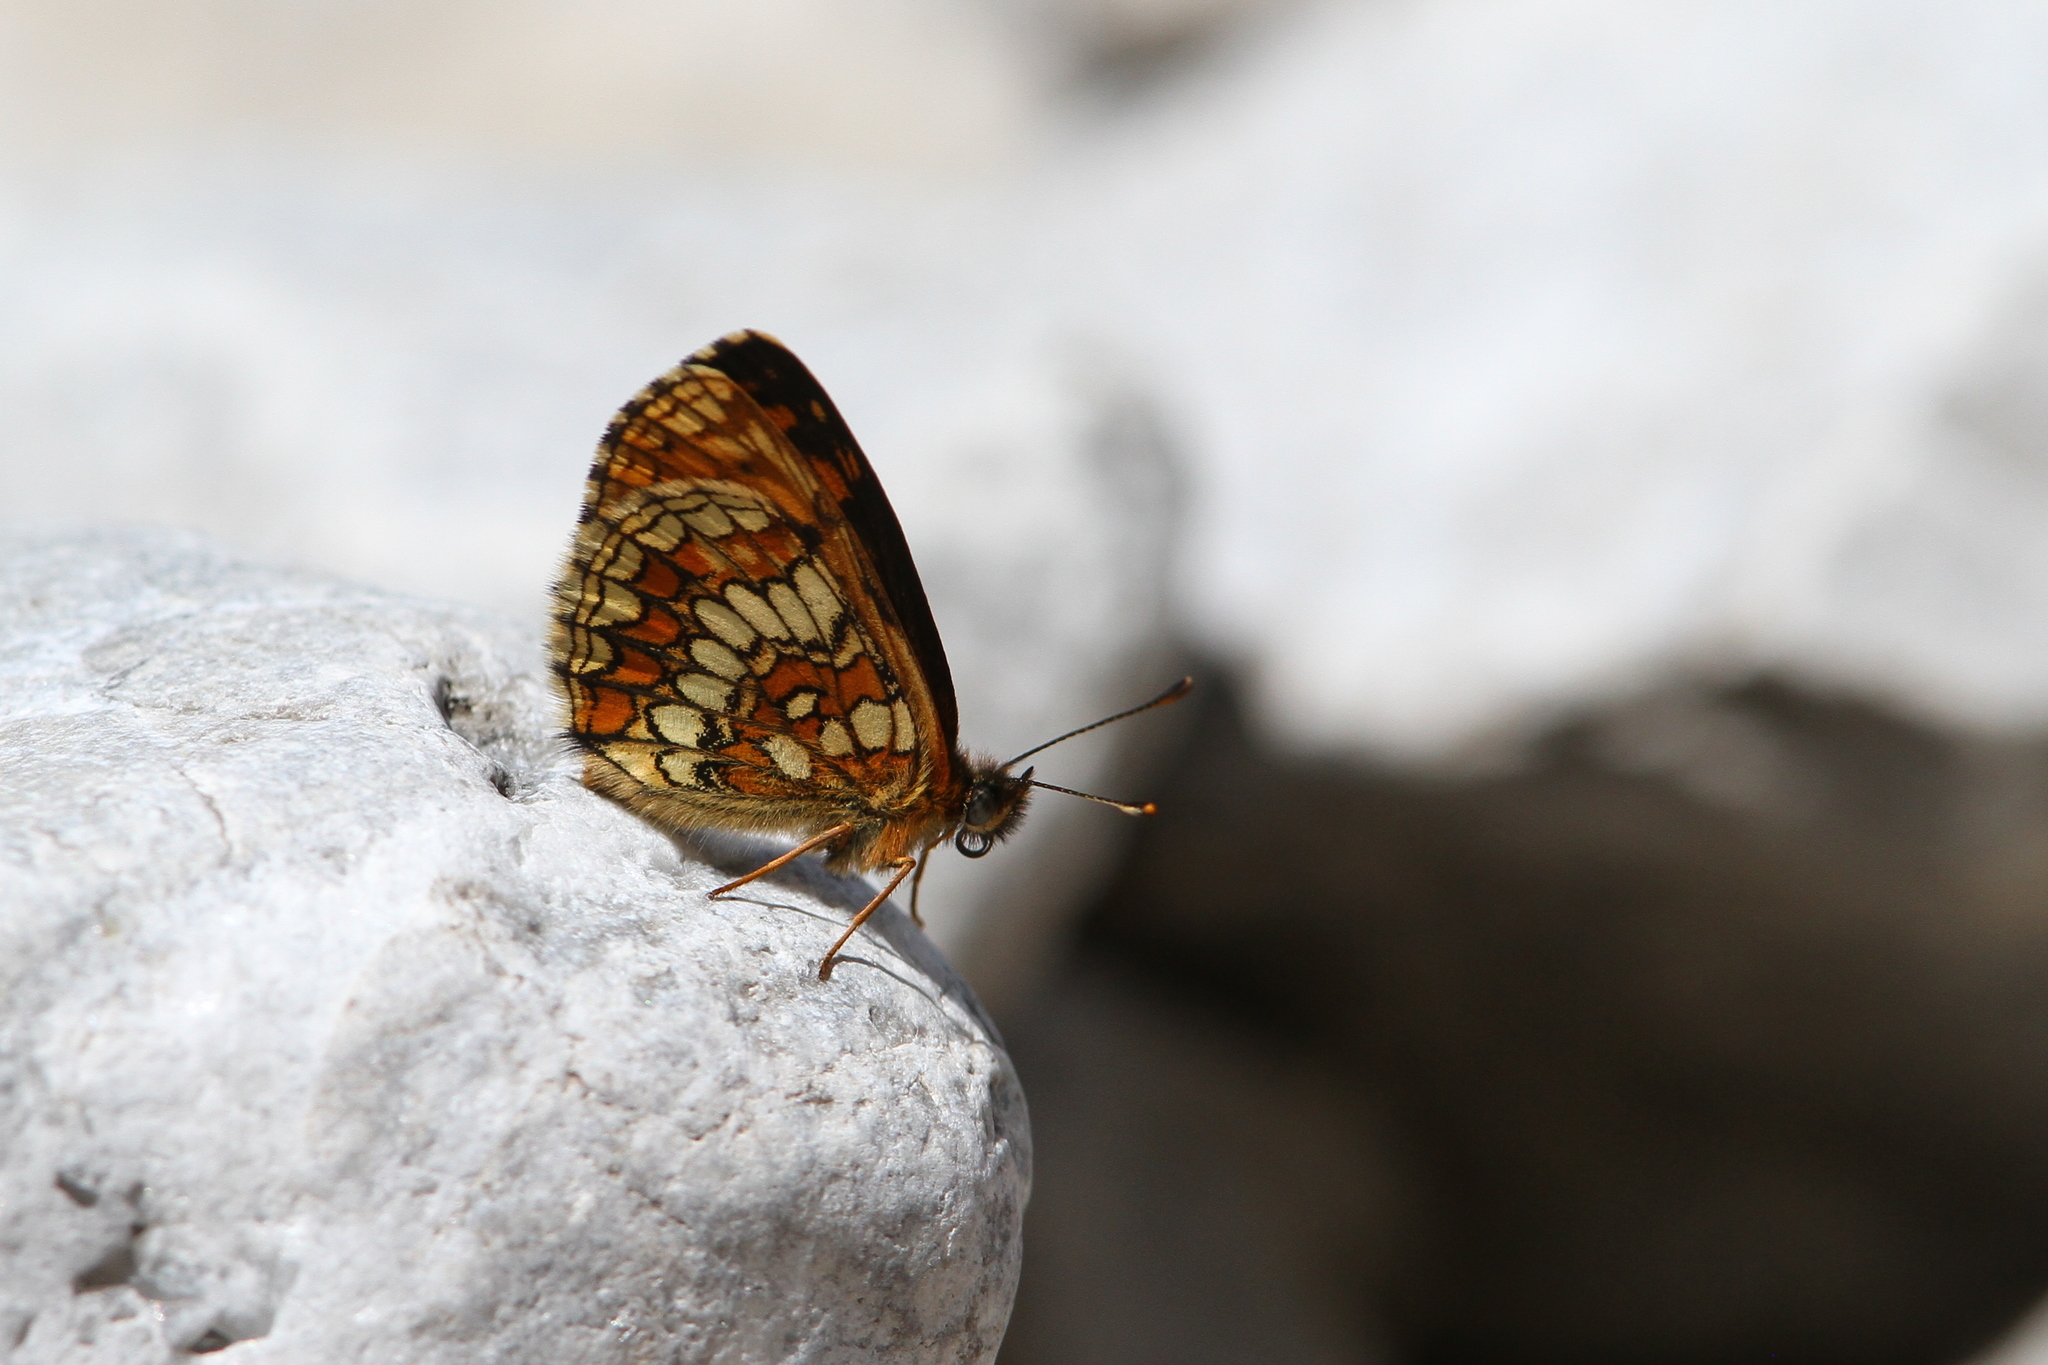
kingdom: Animalia
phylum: Arthropoda
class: Insecta
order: Lepidoptera
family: Nymphalidae
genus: Melitaea
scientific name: Melitaea athalia
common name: Heath fritillary
